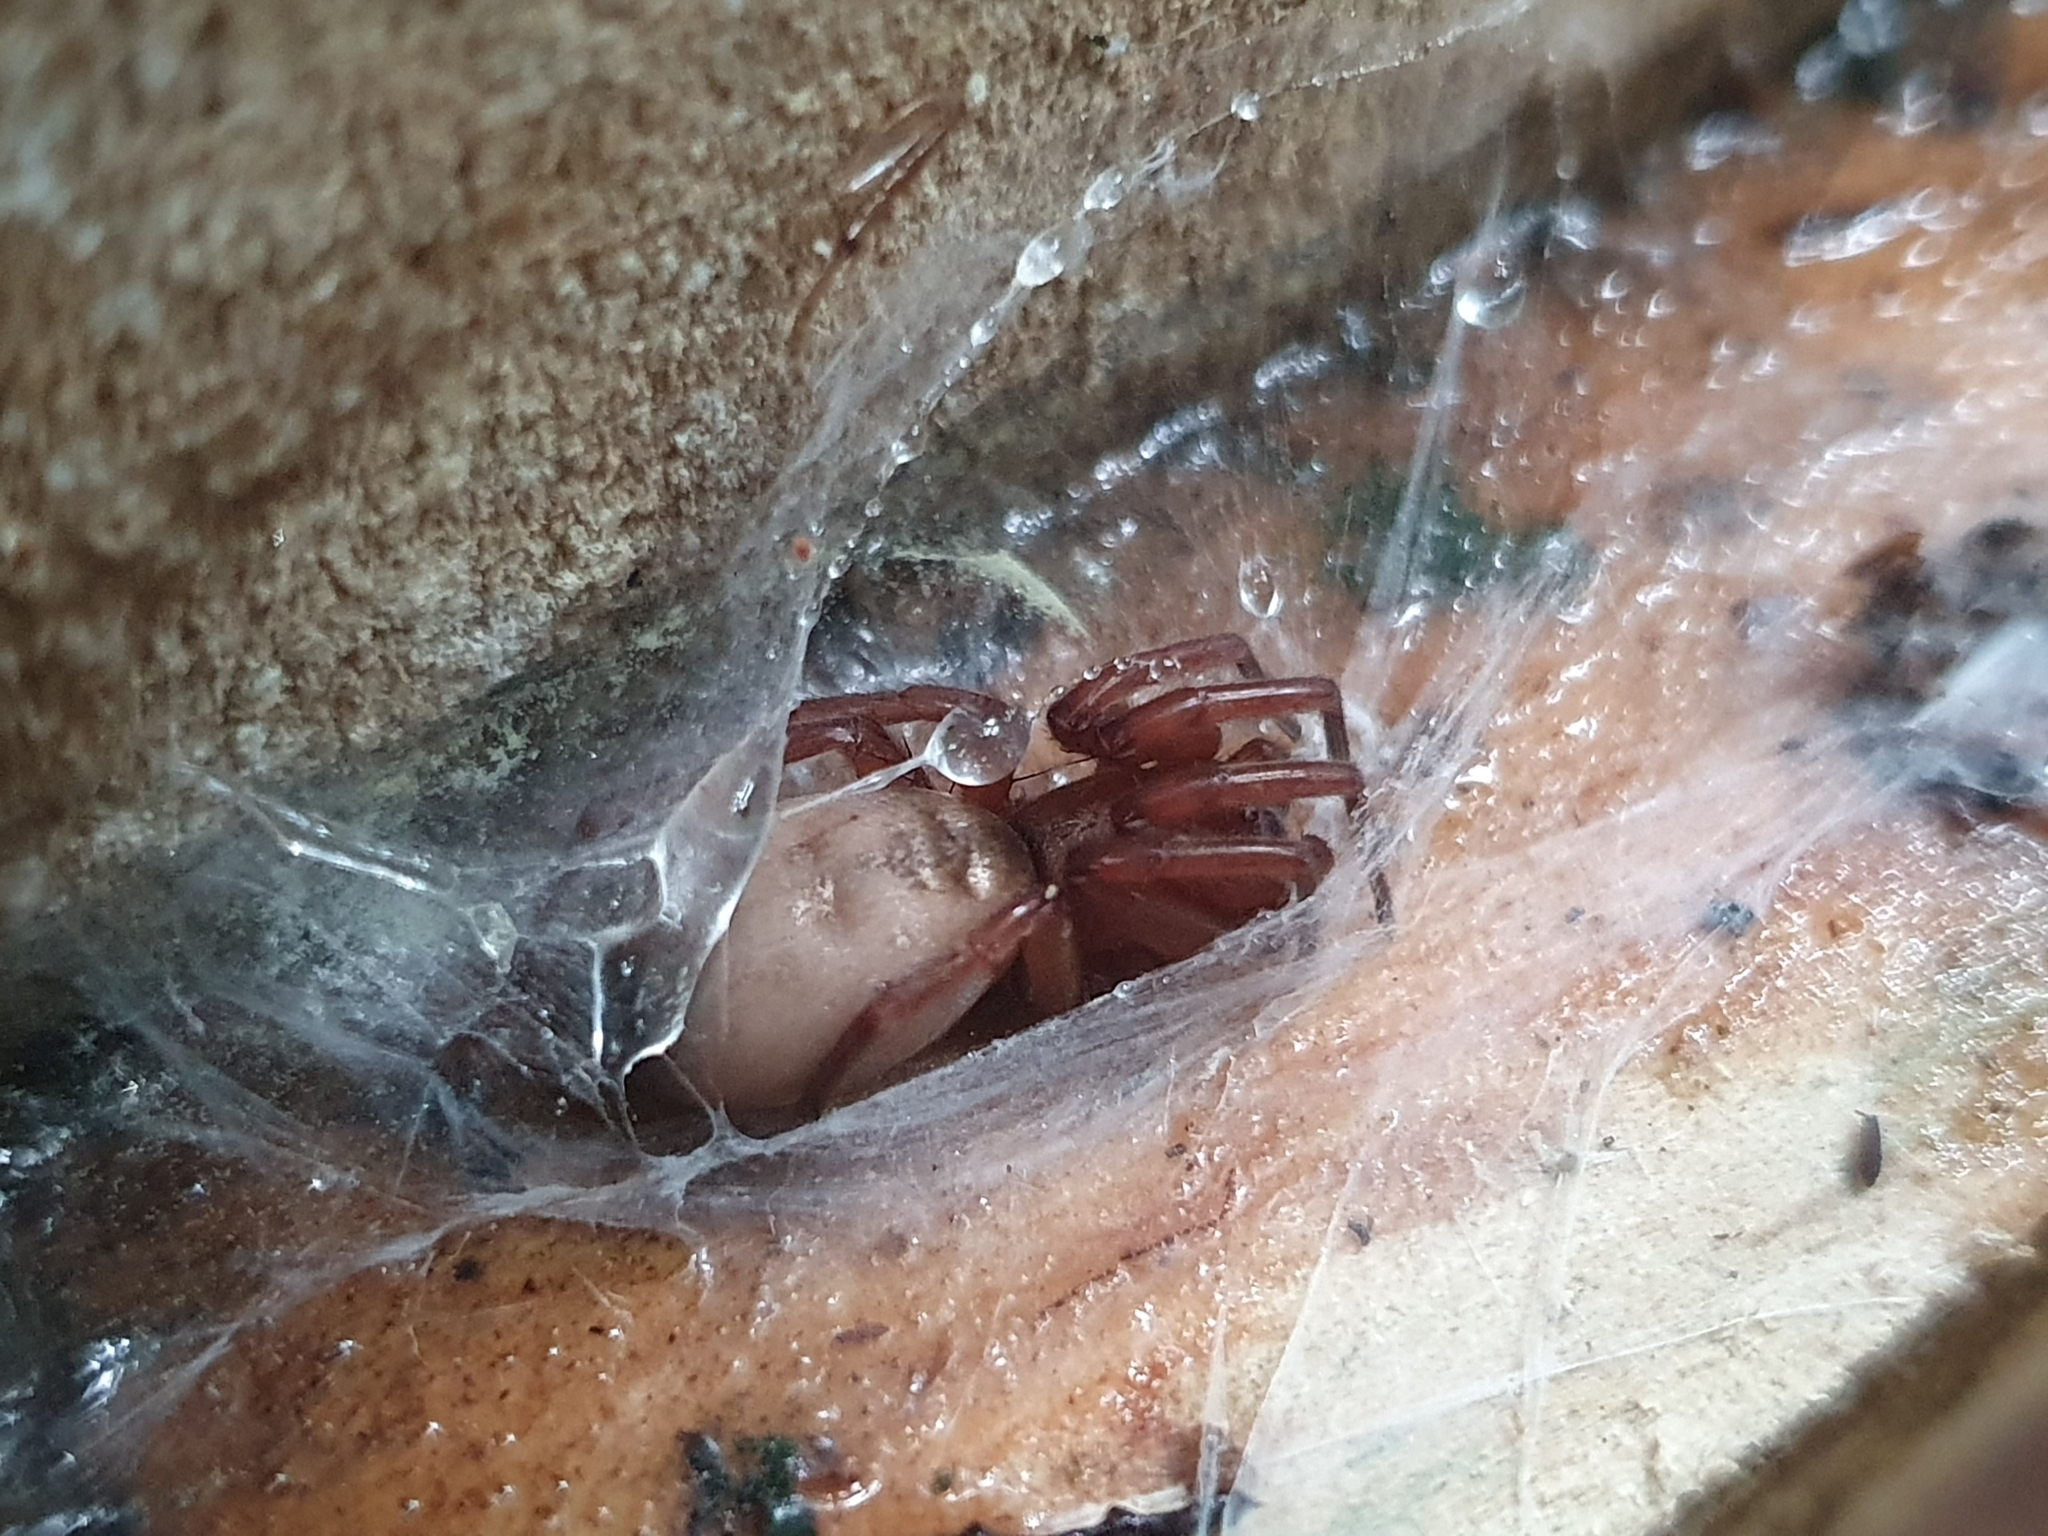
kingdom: Animalia
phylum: Arthropoda
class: Arachnida
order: Araneae
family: Dysderidae
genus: Dysdera
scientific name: Dysdera crocata
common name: Woodlouse spider
